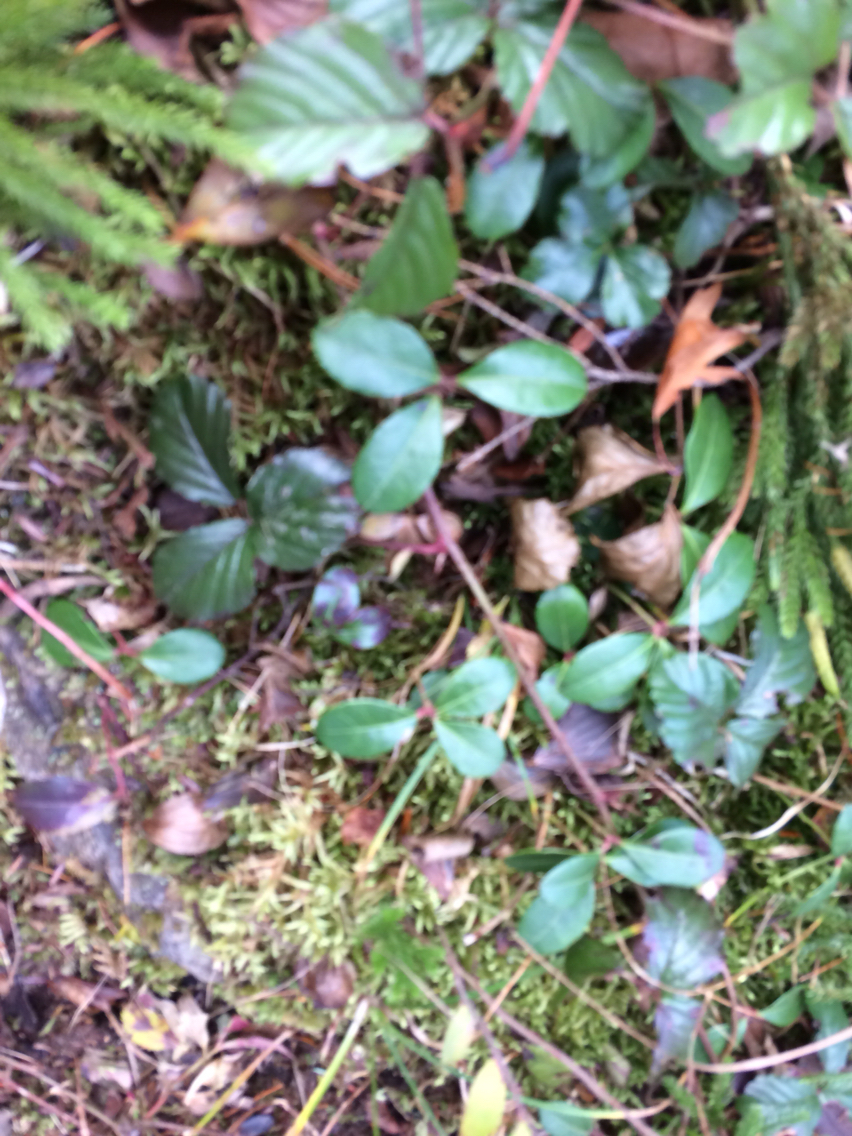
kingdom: Plantae
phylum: Tracheophyta
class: Magnoliopsida
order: Ericales
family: Ericaceae
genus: Gaultheria
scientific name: Gaultheria procumbens
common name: Checkerberry
